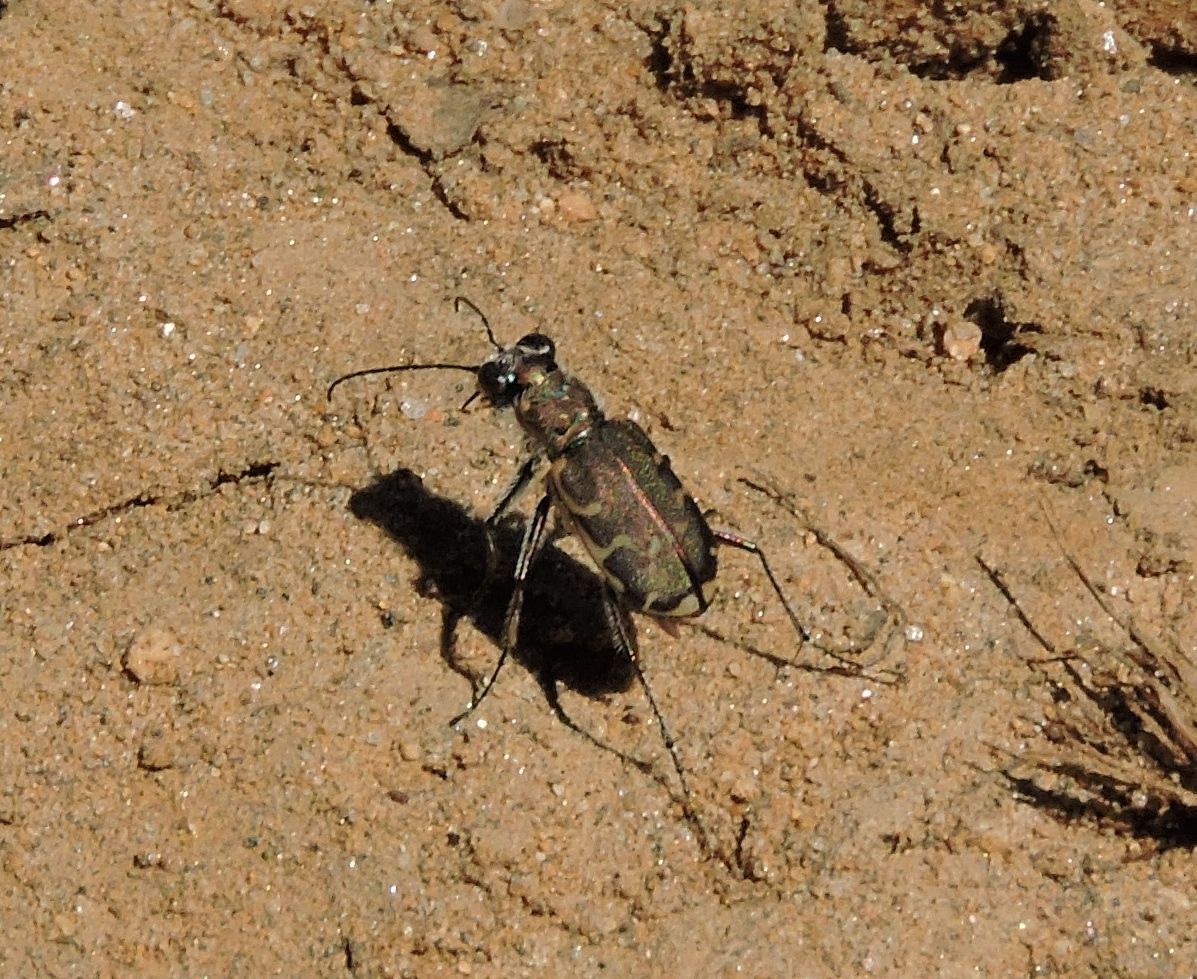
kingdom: Animalia
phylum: Arthropoda
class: Insecta
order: Coleoptera
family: Carabidae
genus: Cicindela
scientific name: Cicindela repanda
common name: Bronzed tiger beetle
